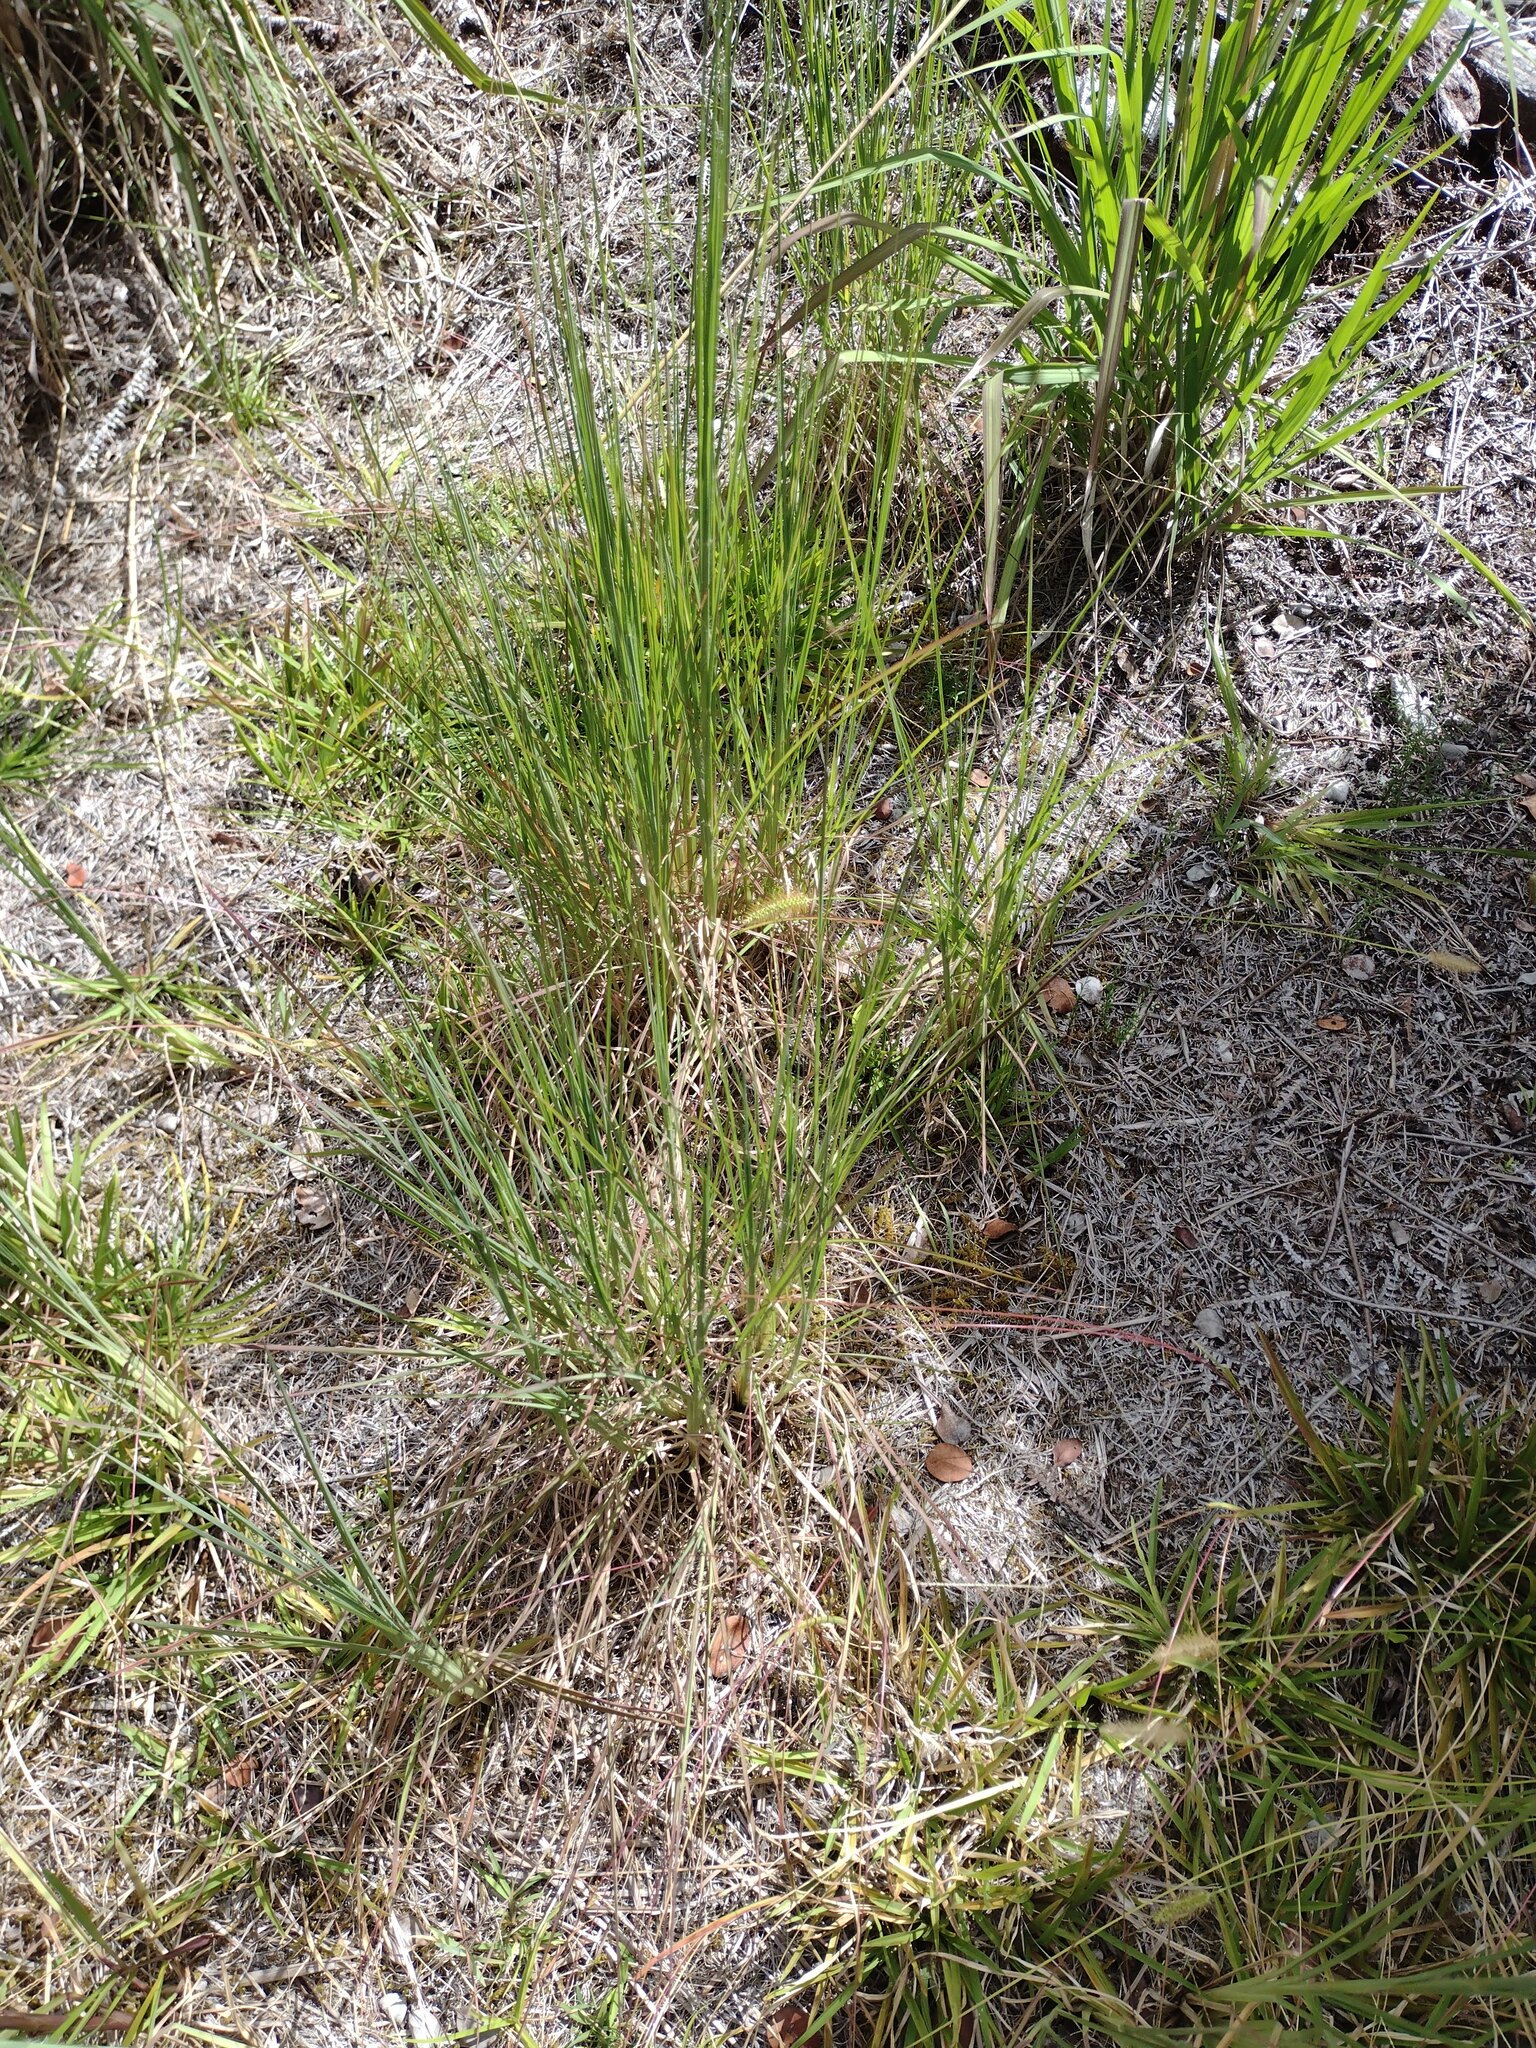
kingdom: Plantae
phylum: Tracheophyta
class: Liliopsida
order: Poales
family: Poaceae
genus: Andropogon
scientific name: Andropogon virginicus
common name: Broomsedge bluestem
